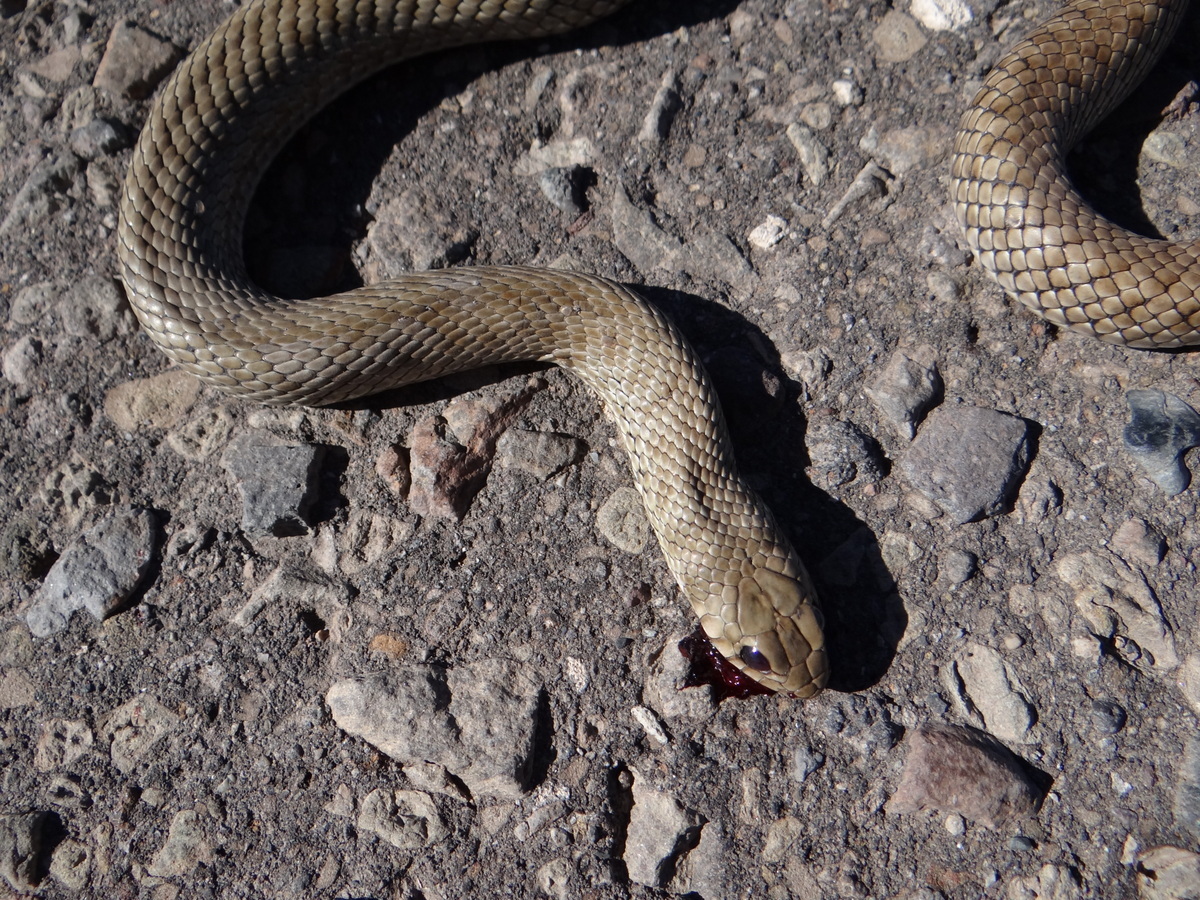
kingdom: Animalia
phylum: Chordata
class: Squamata
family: Colubridae
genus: Philodryas
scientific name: Philodryas patagoniensis
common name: Patagonia green racer
